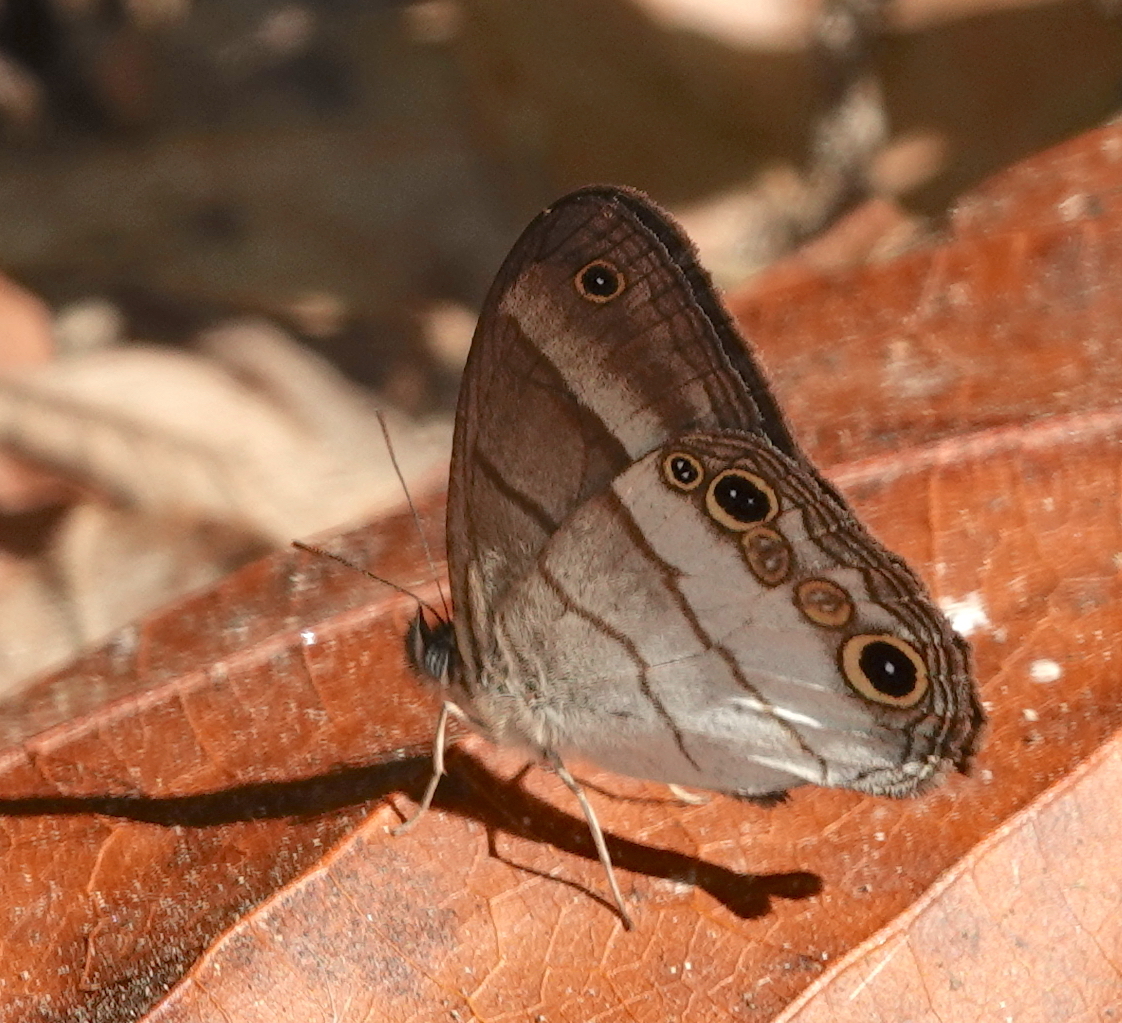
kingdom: Animalia
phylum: Arthropoda
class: Insecta
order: Lepidoptera
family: Nymphalidae
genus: Euptychoides
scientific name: Euptychoides saturnus
